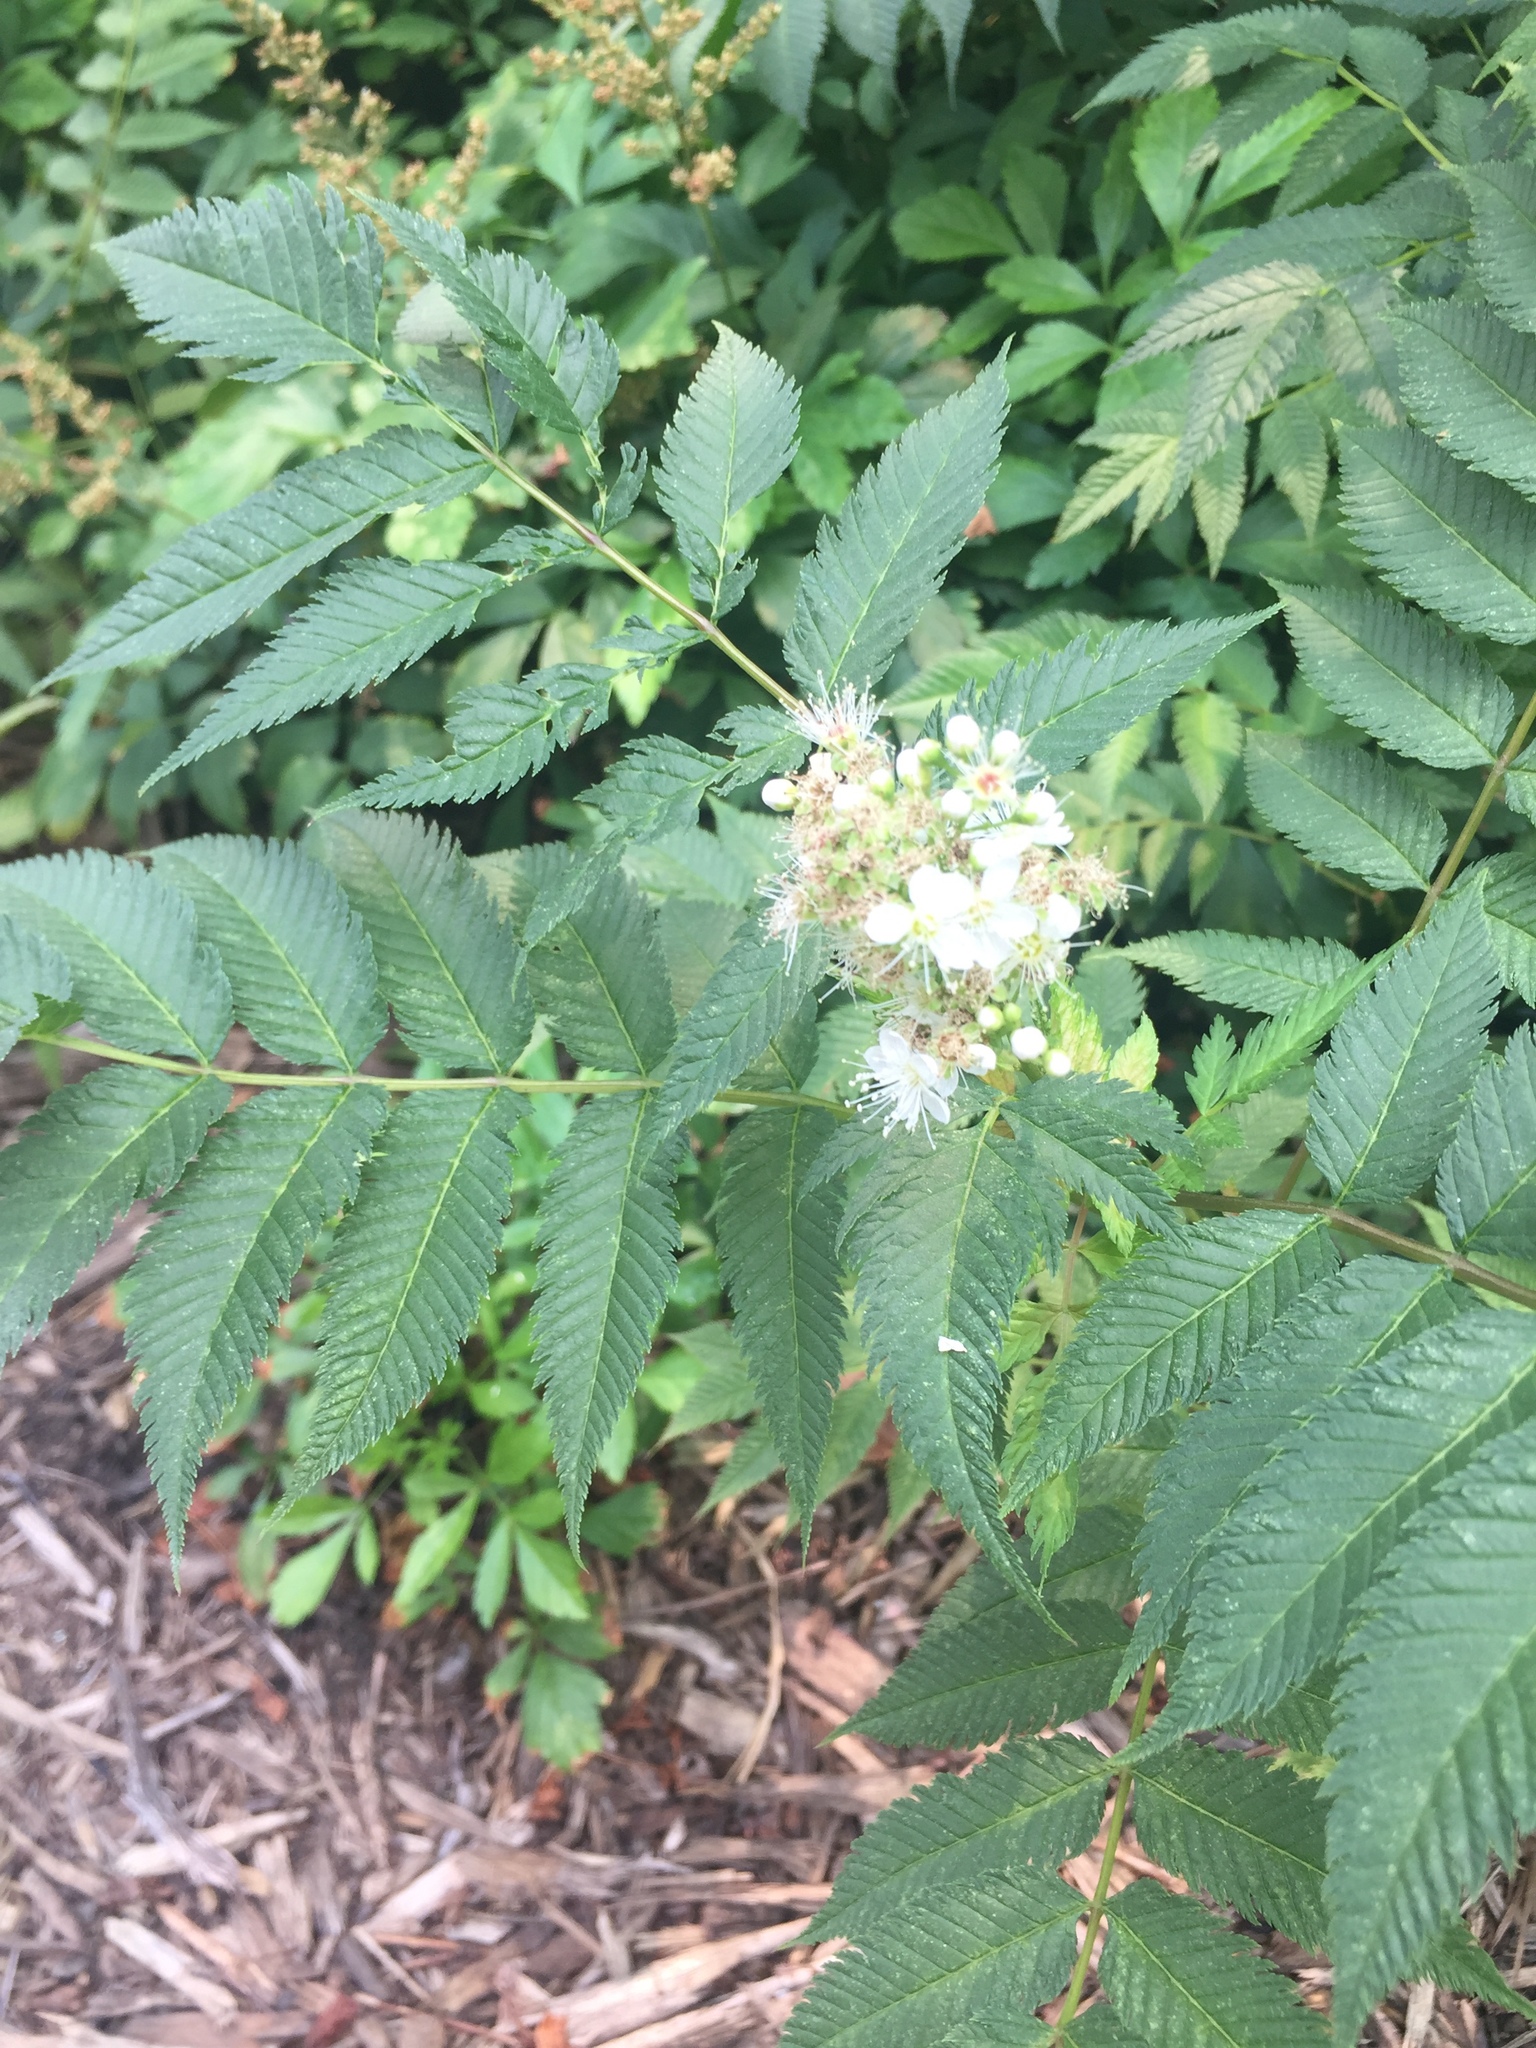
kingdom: Plantae
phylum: Tracheophyta
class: Magnoliopsida
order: Rosales
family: Rosaceae
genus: Sorbaria
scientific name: Sorbaria sorbifolia
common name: False spiraea
